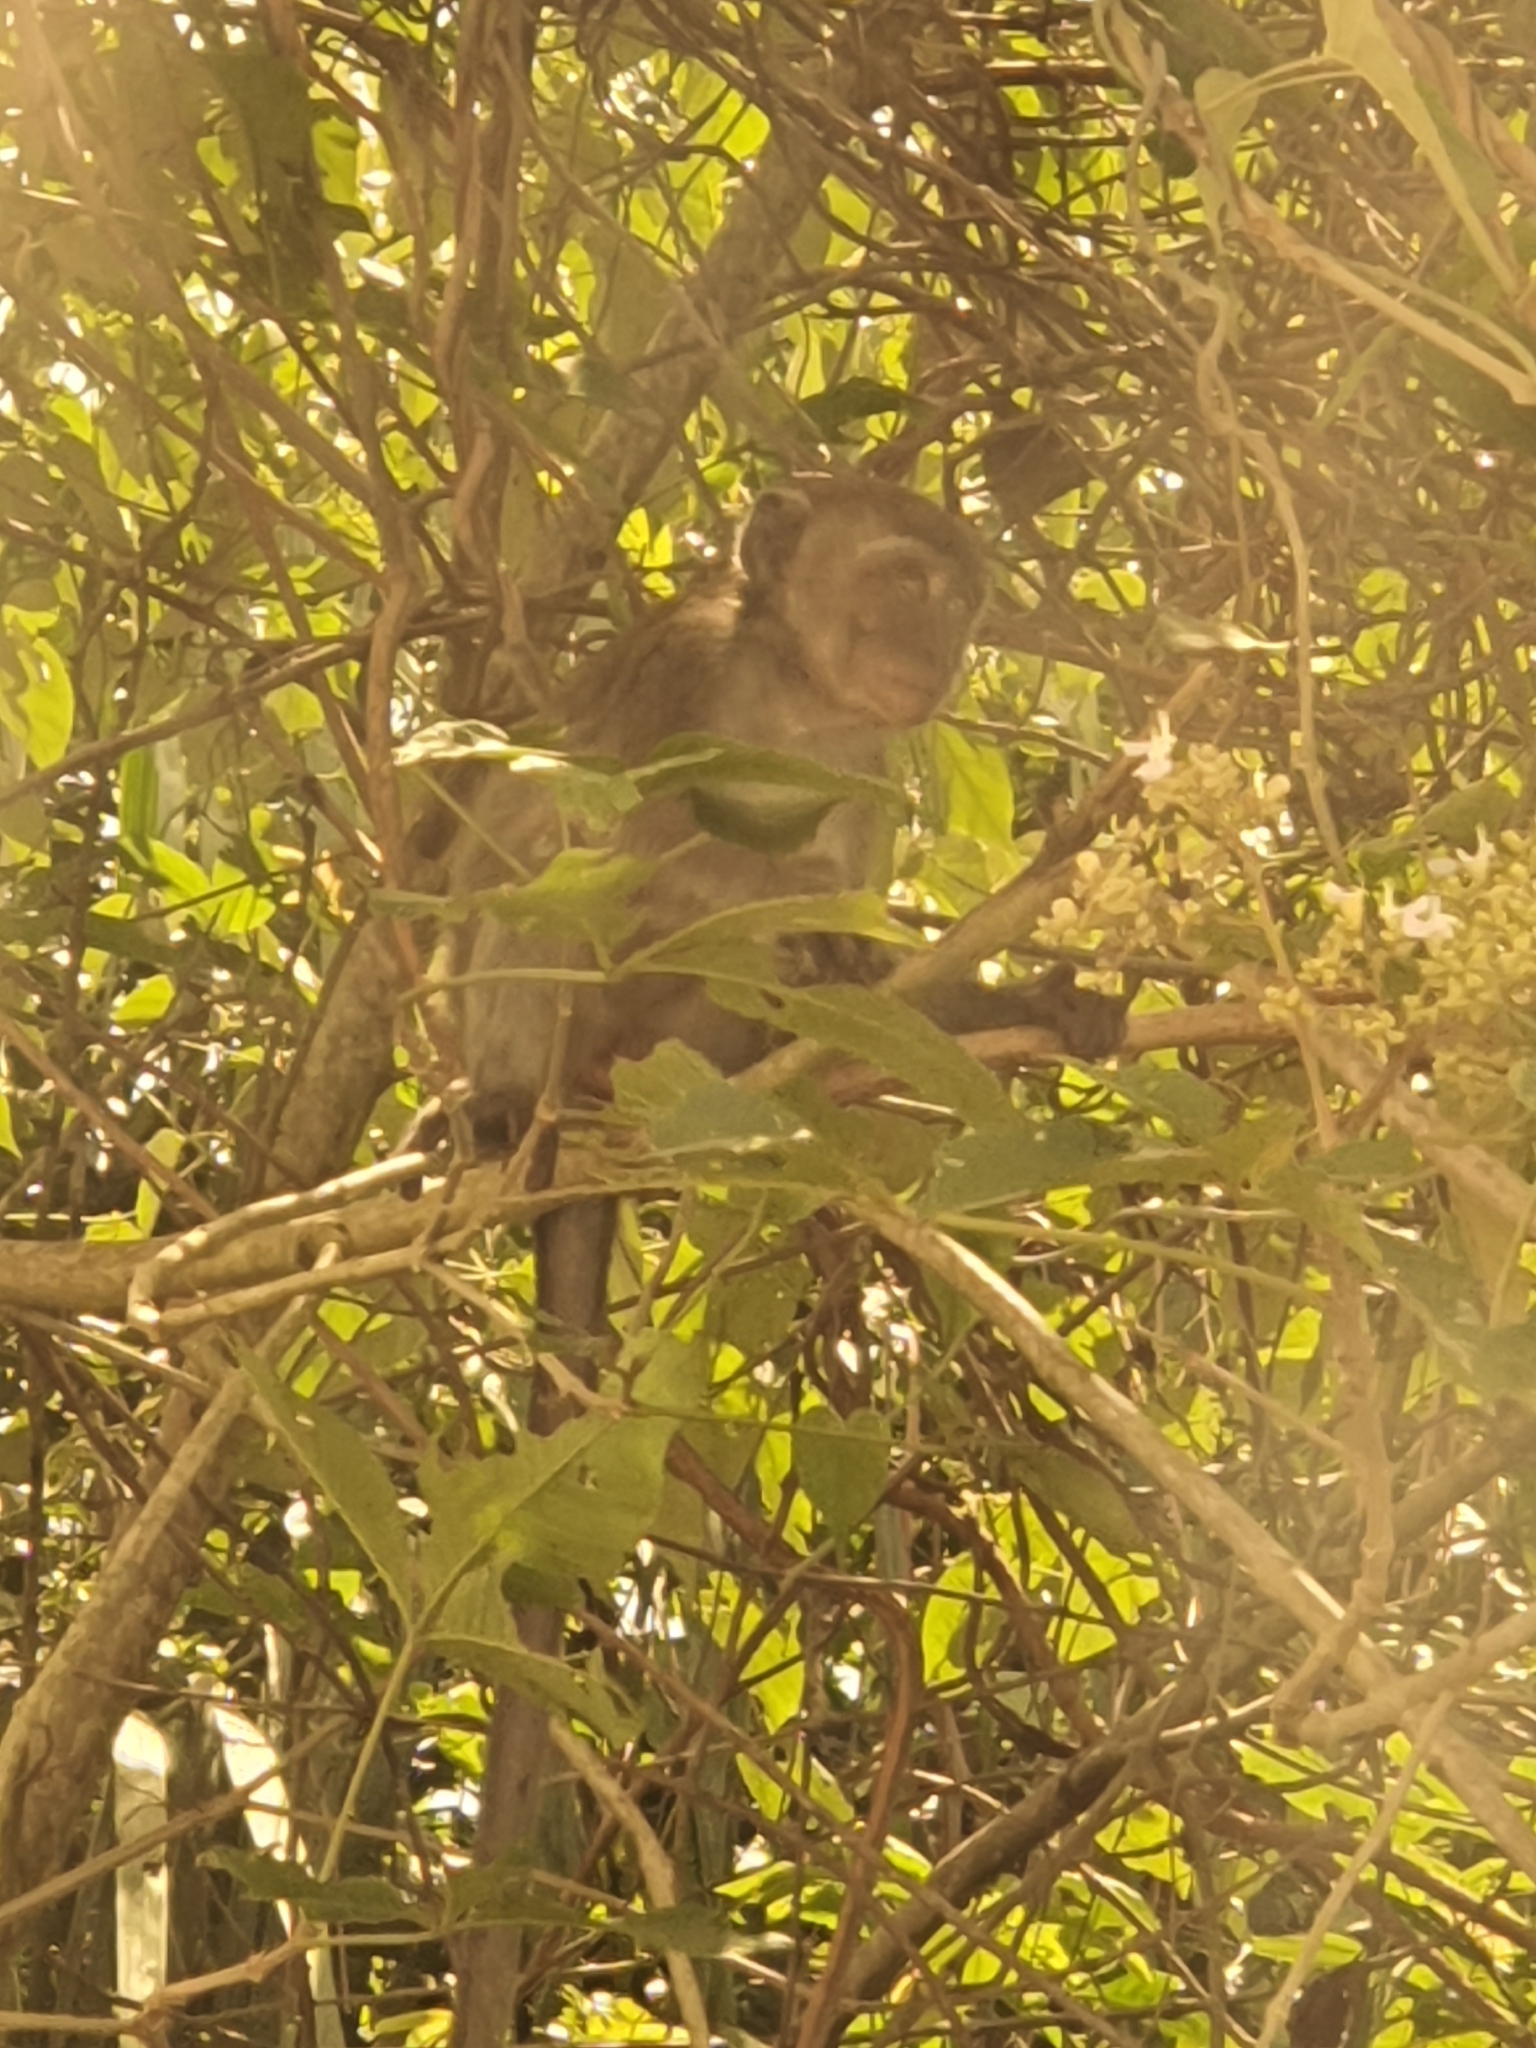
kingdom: Animalia
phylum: Chordata
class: Mammalia
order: Primates
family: Cercopithecidae
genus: Macaca
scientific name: Macaca fascicularis
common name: Crab-eating macaque
